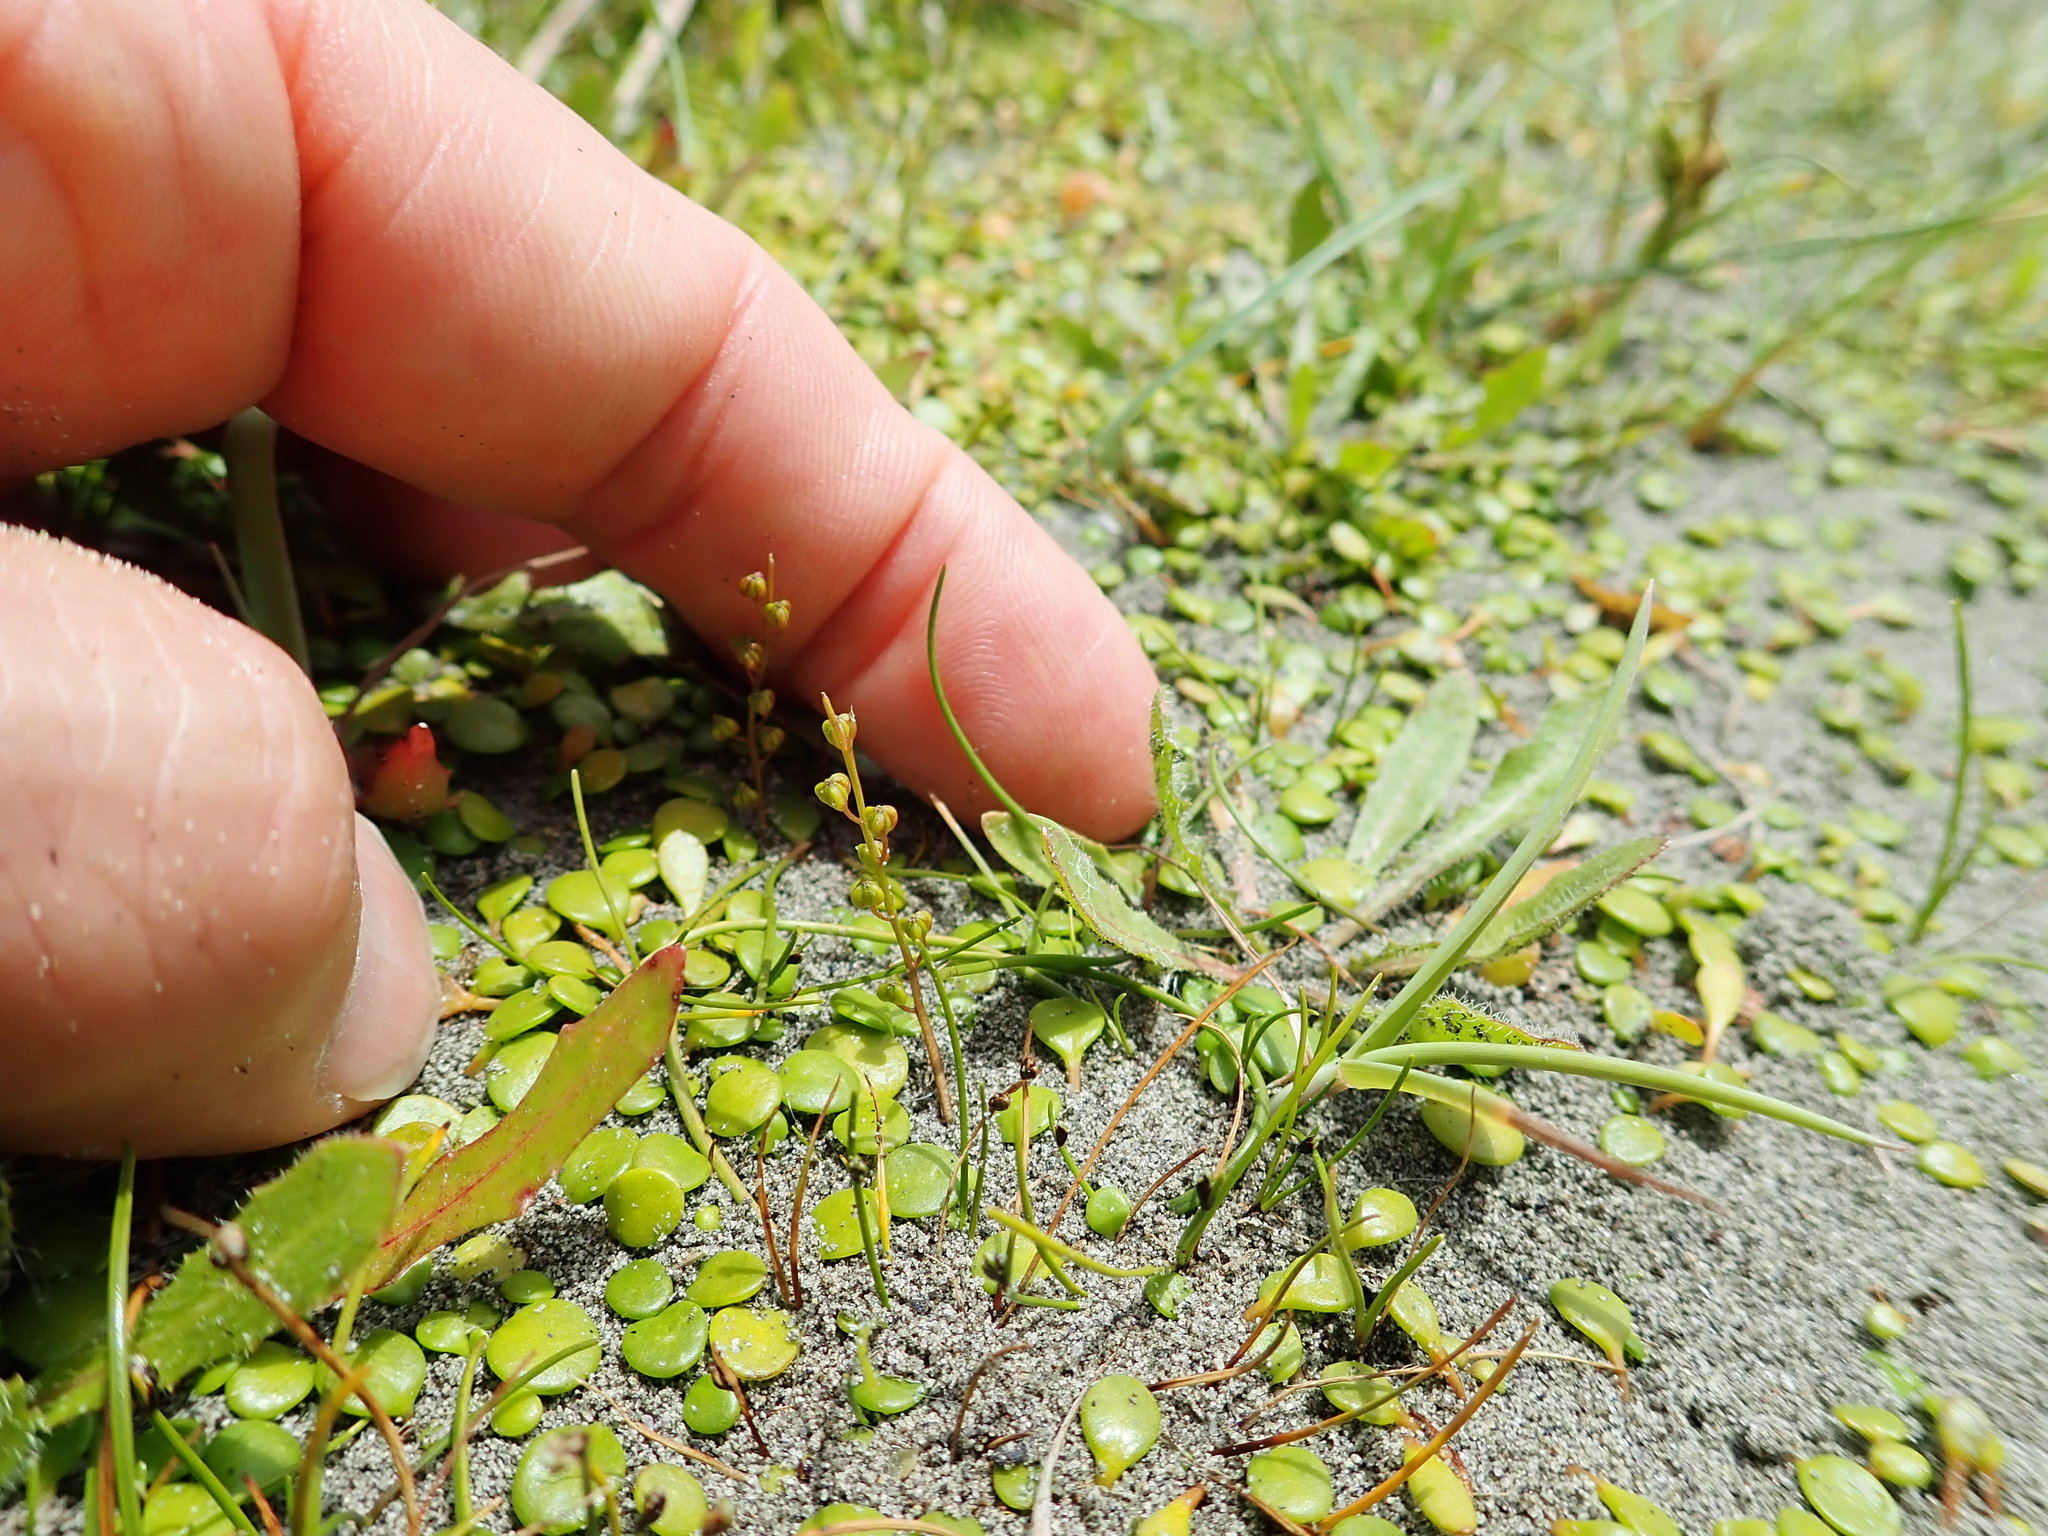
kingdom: Plantae
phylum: Tracheophyta
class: Liliopsida
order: Alismatales
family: Juncaginaceae
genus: Triglochin
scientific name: Triglochin striata
